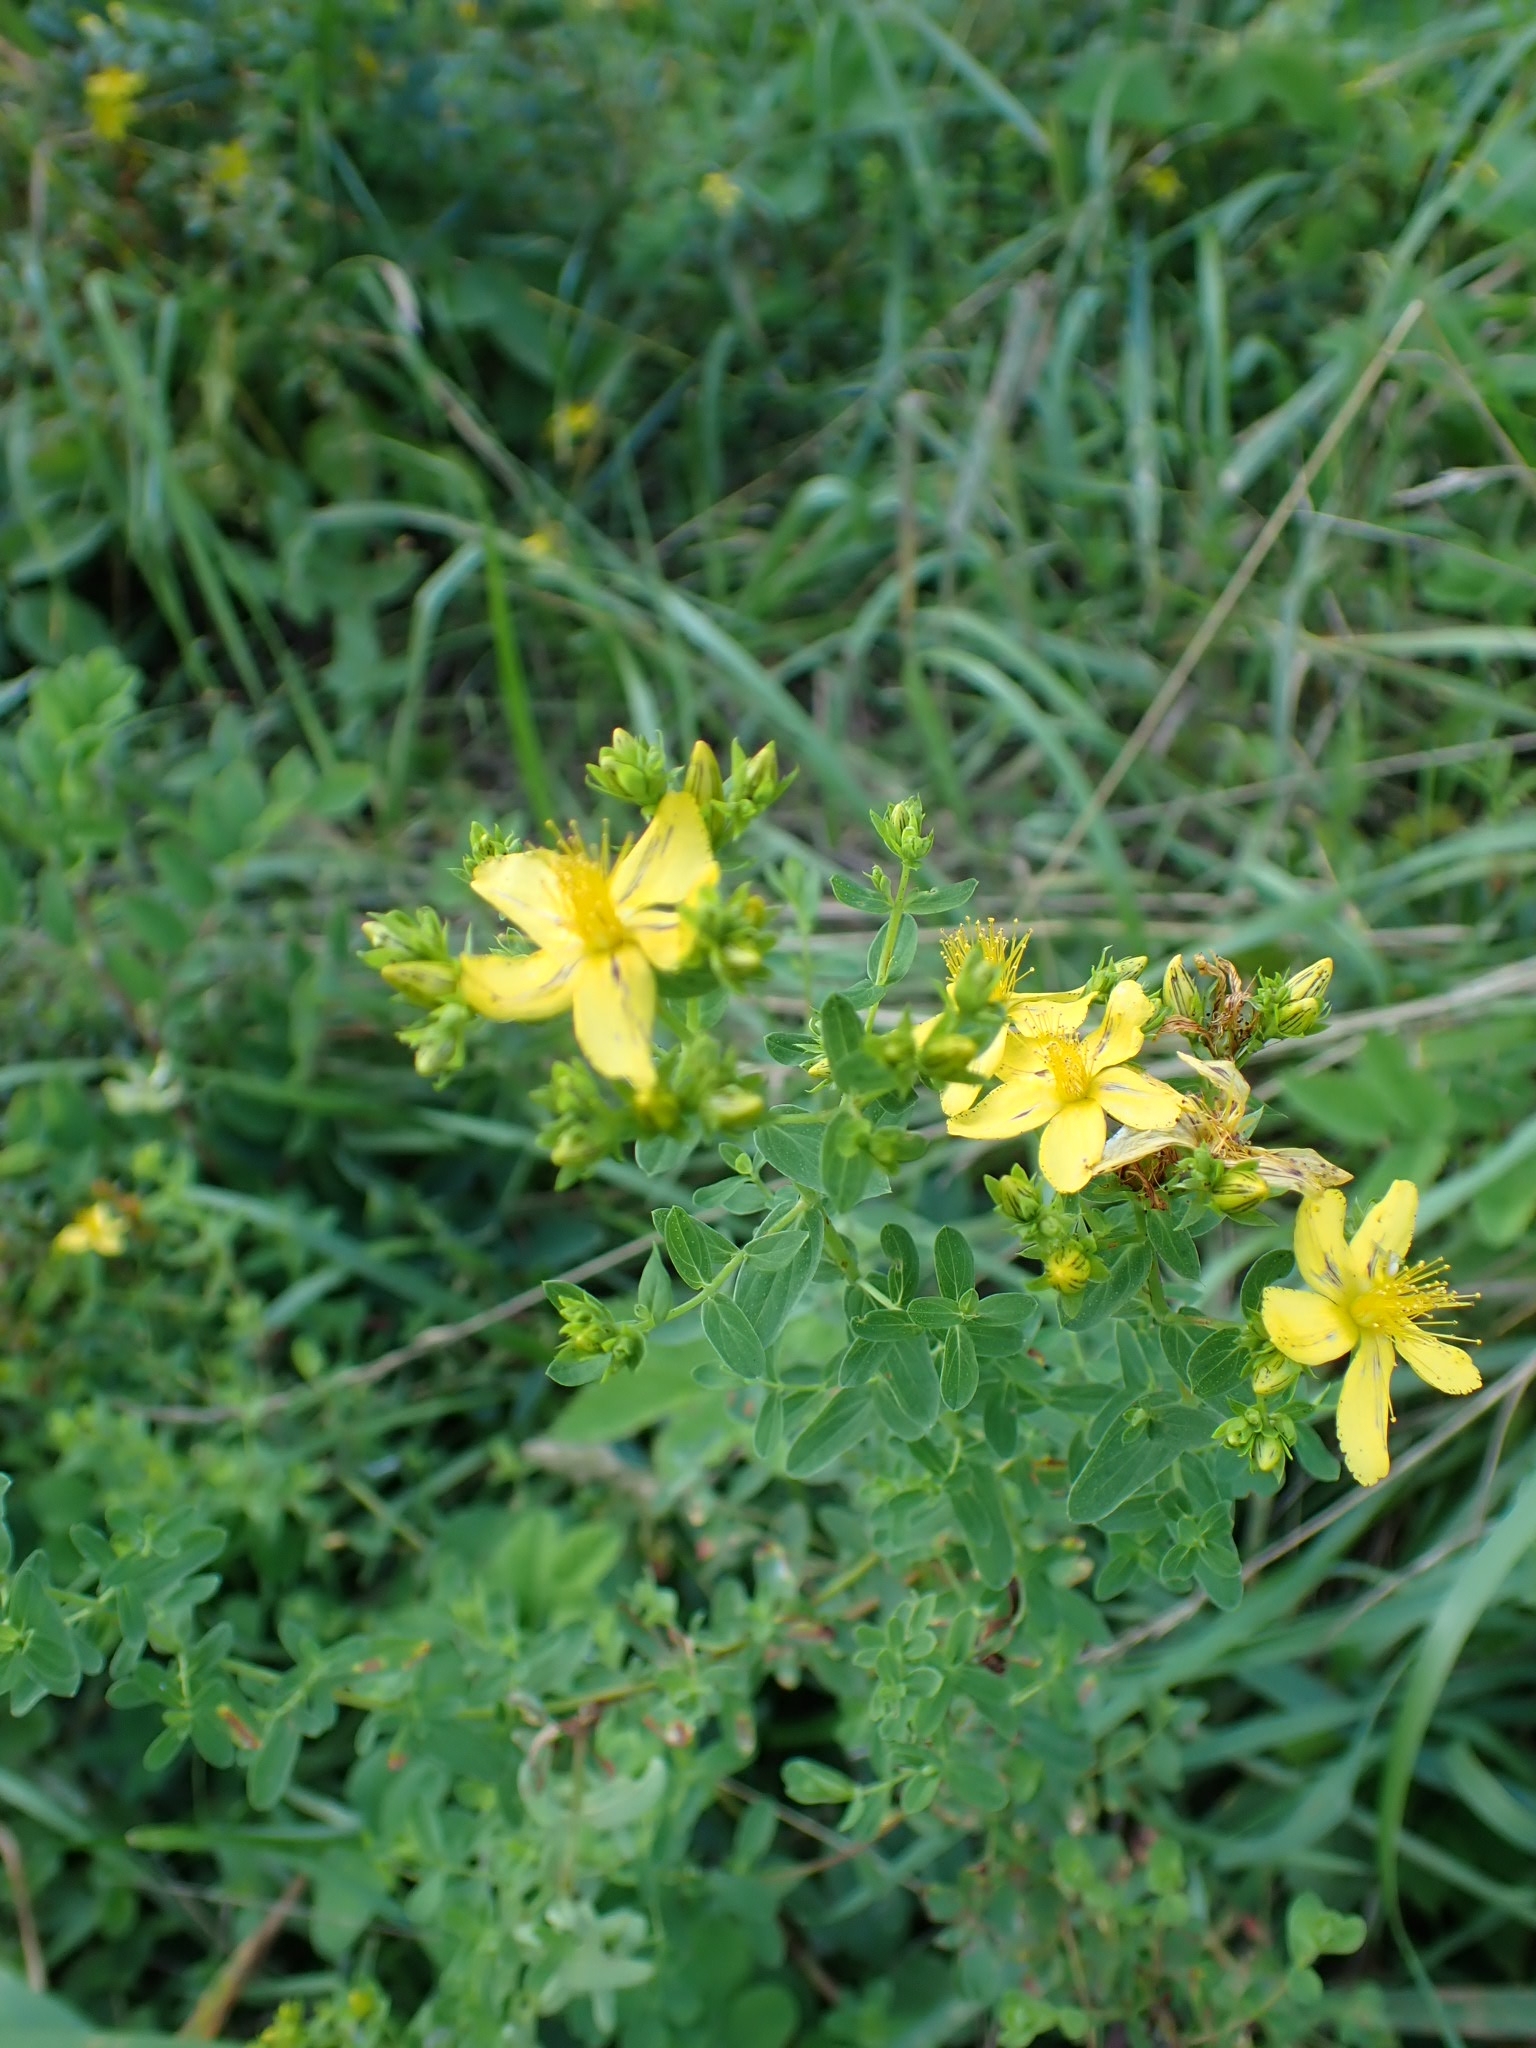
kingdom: Plantae
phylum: Tracheophyta
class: Magnoliopsida
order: Malpighiales
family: Hypericaceae
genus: Hypericum
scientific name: Hypericum perforatum
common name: Common st. johnswort
